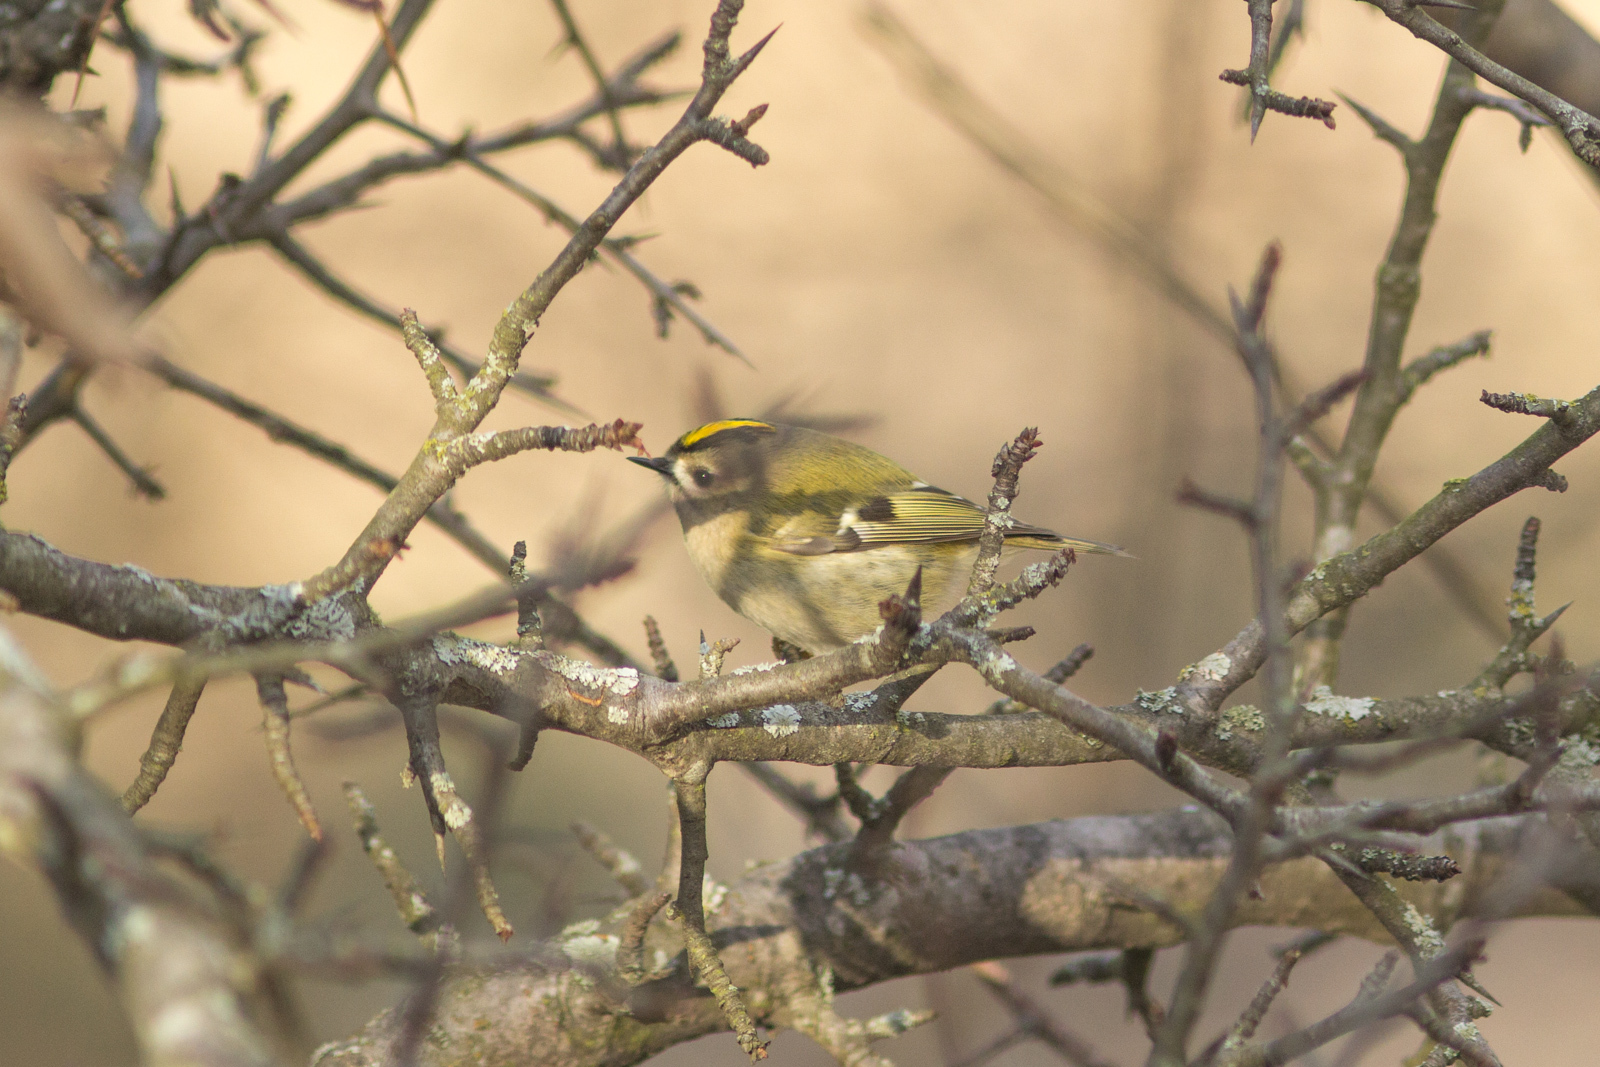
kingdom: Animalia
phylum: Chordata
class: Aves
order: Passeriformes
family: Regulidae
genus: Regulus
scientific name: Regulus regulus
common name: Goldcrest
